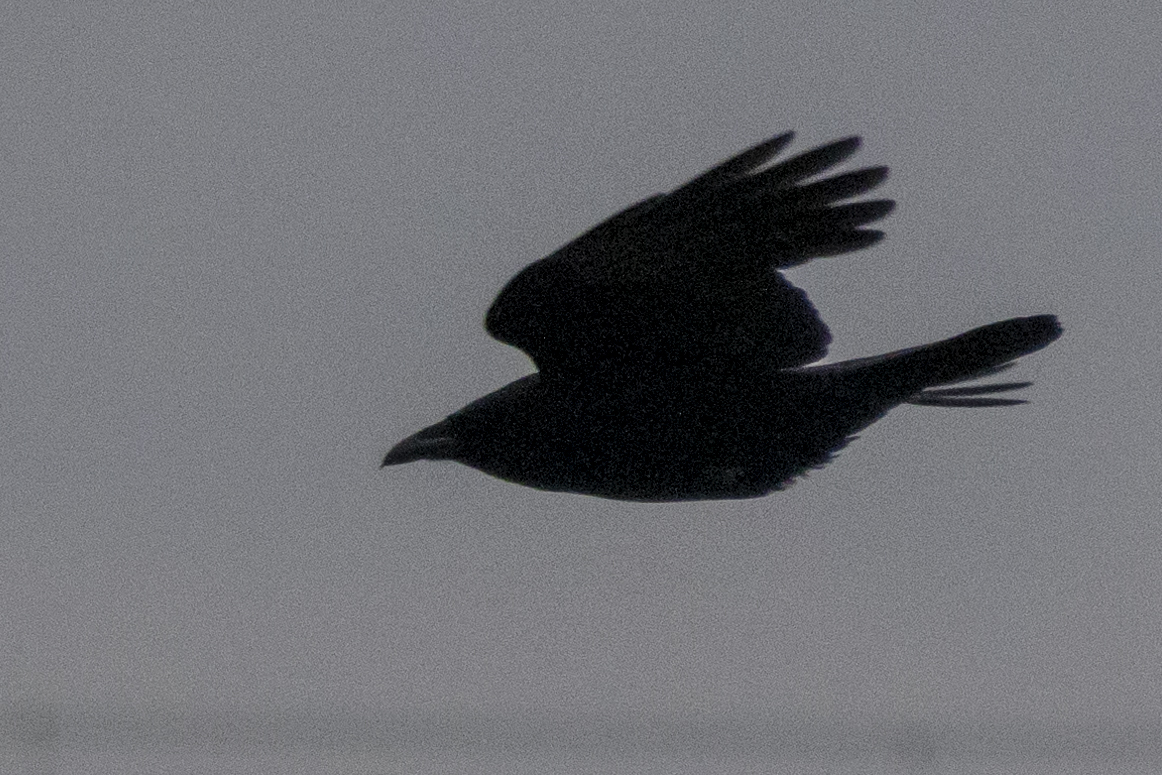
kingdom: Animalia
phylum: Chordata
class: Aves
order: Passeriformes
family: Corvidae
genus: Corvus
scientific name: Corvus corone
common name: Carrion crow
